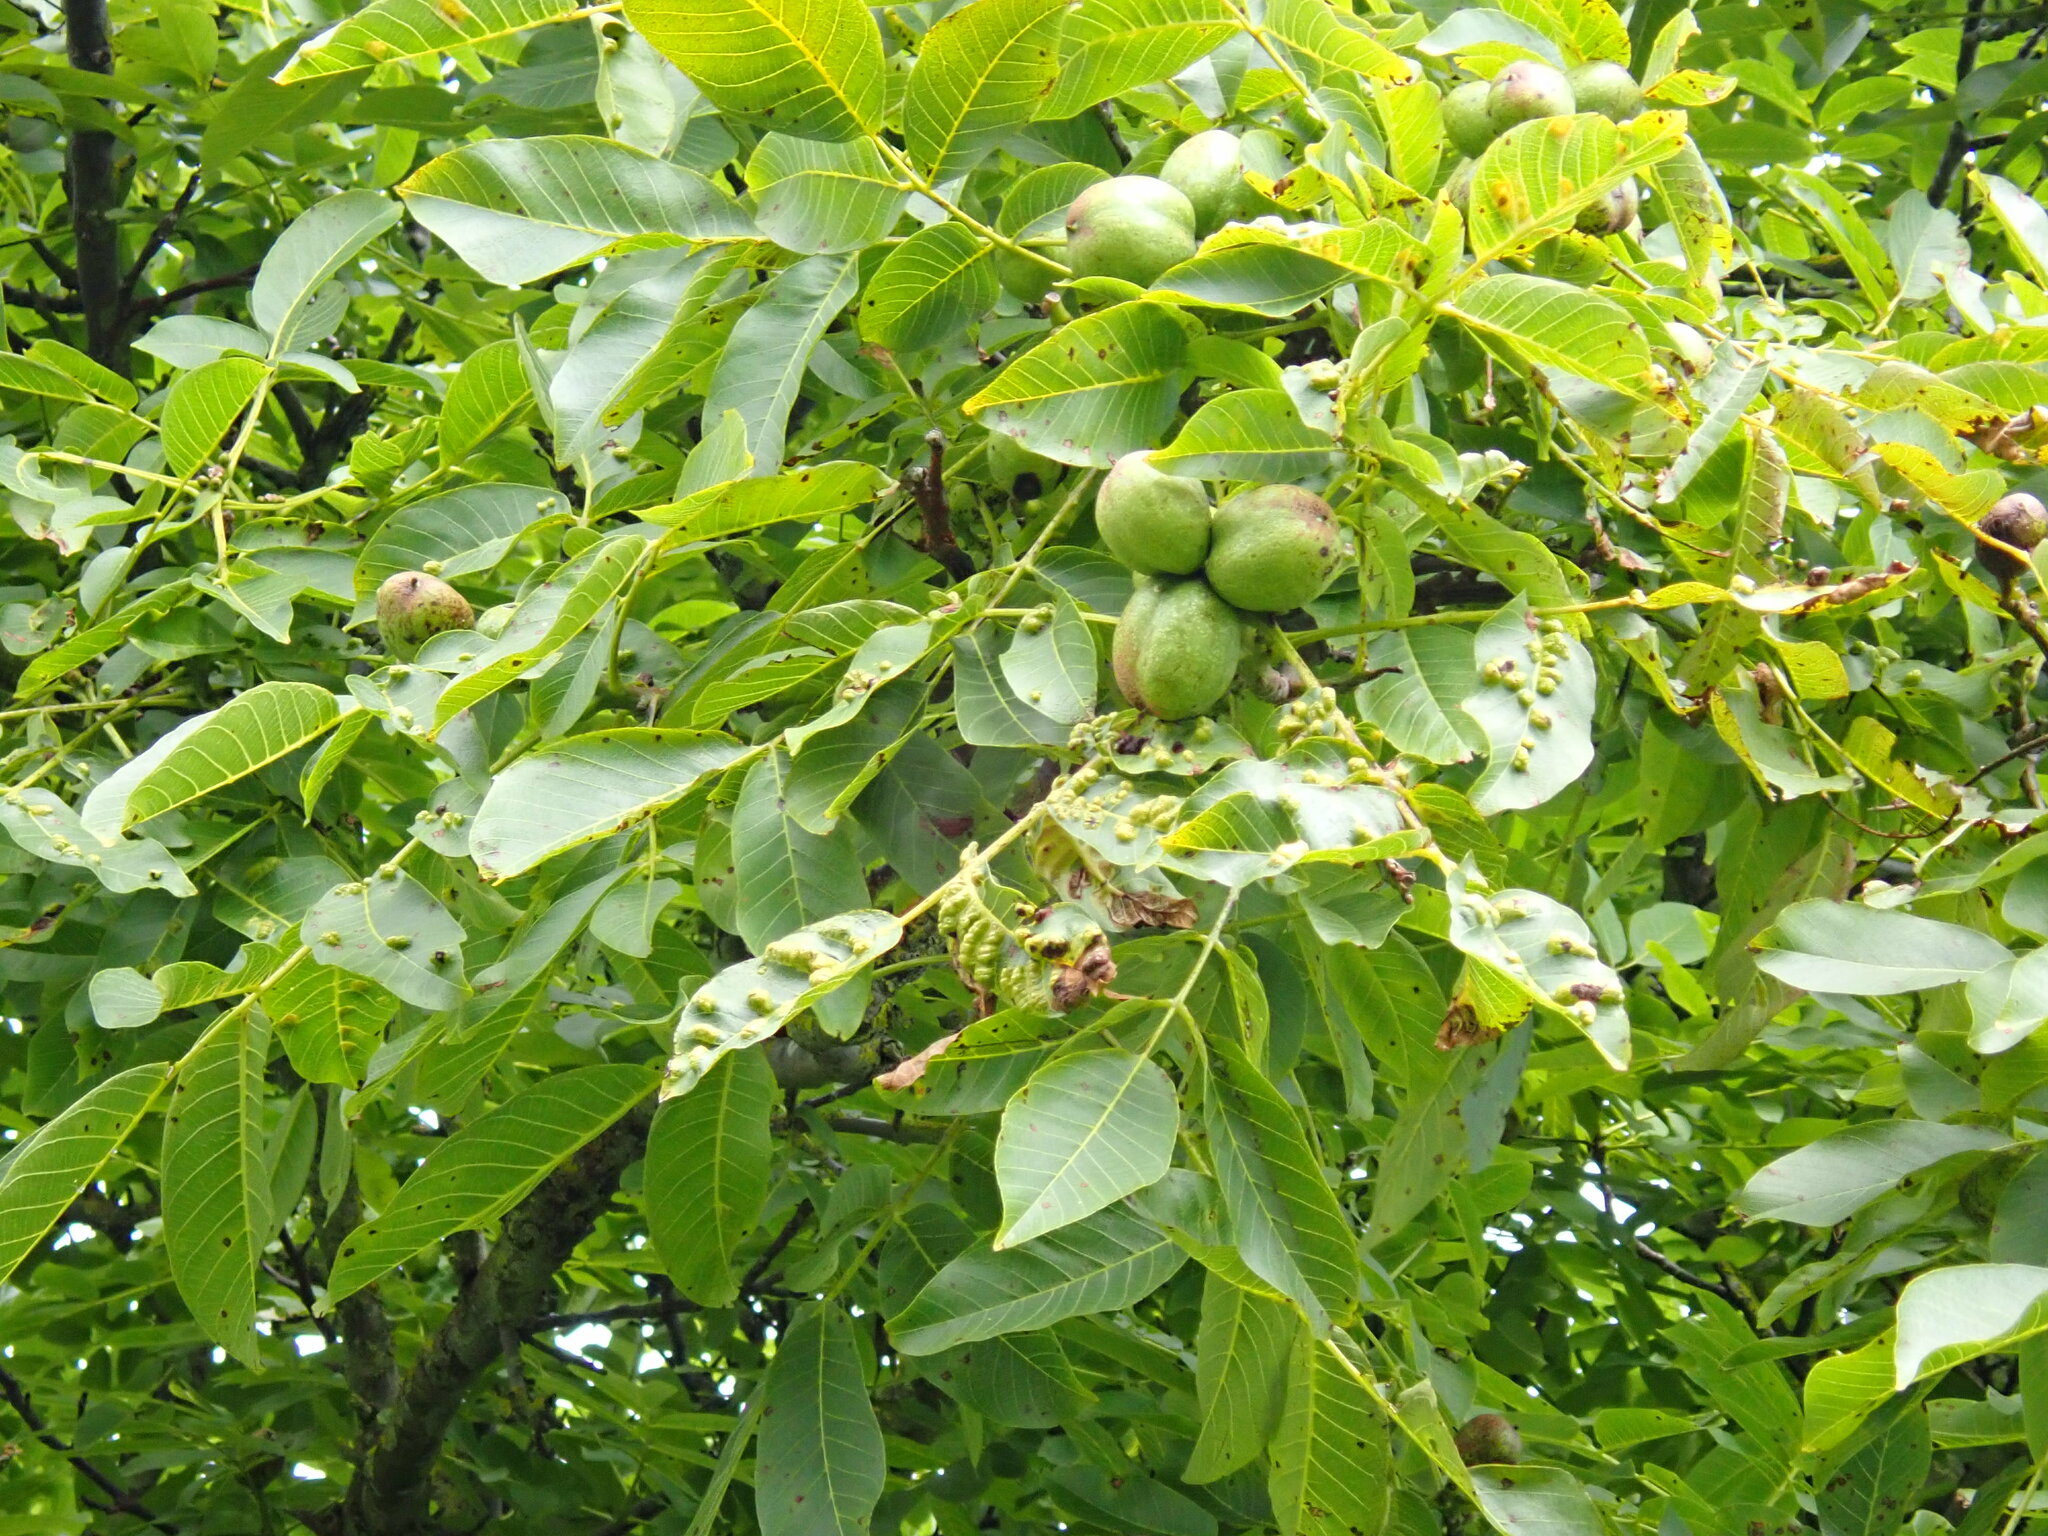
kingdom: Animalia
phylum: Arthropoda
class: Arachnida
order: Trombidiformes
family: Eriophyidae
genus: Aceria
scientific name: Aceria erinea
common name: Persian walnut erineum mite
